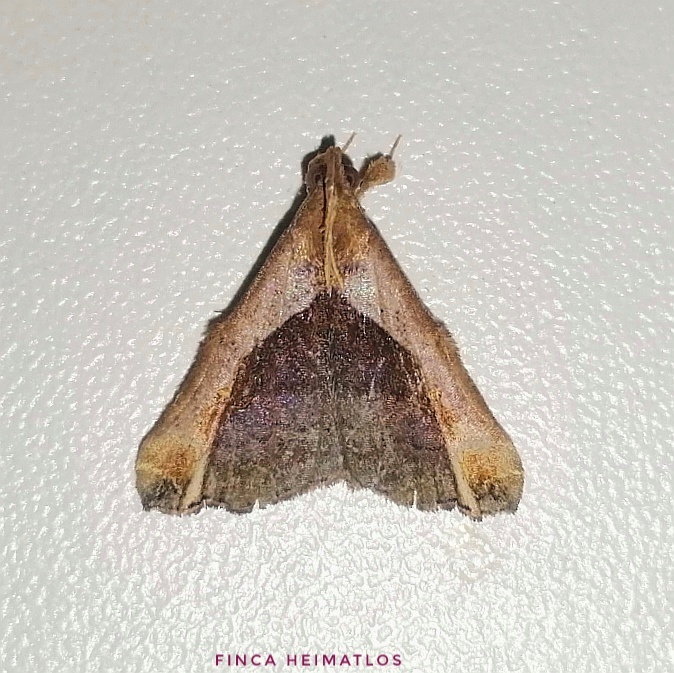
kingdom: Animalia
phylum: Arthropoda
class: Insecta
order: Lepidoptera
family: Erebidae
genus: Palthis
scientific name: Palthis argenteicincta
